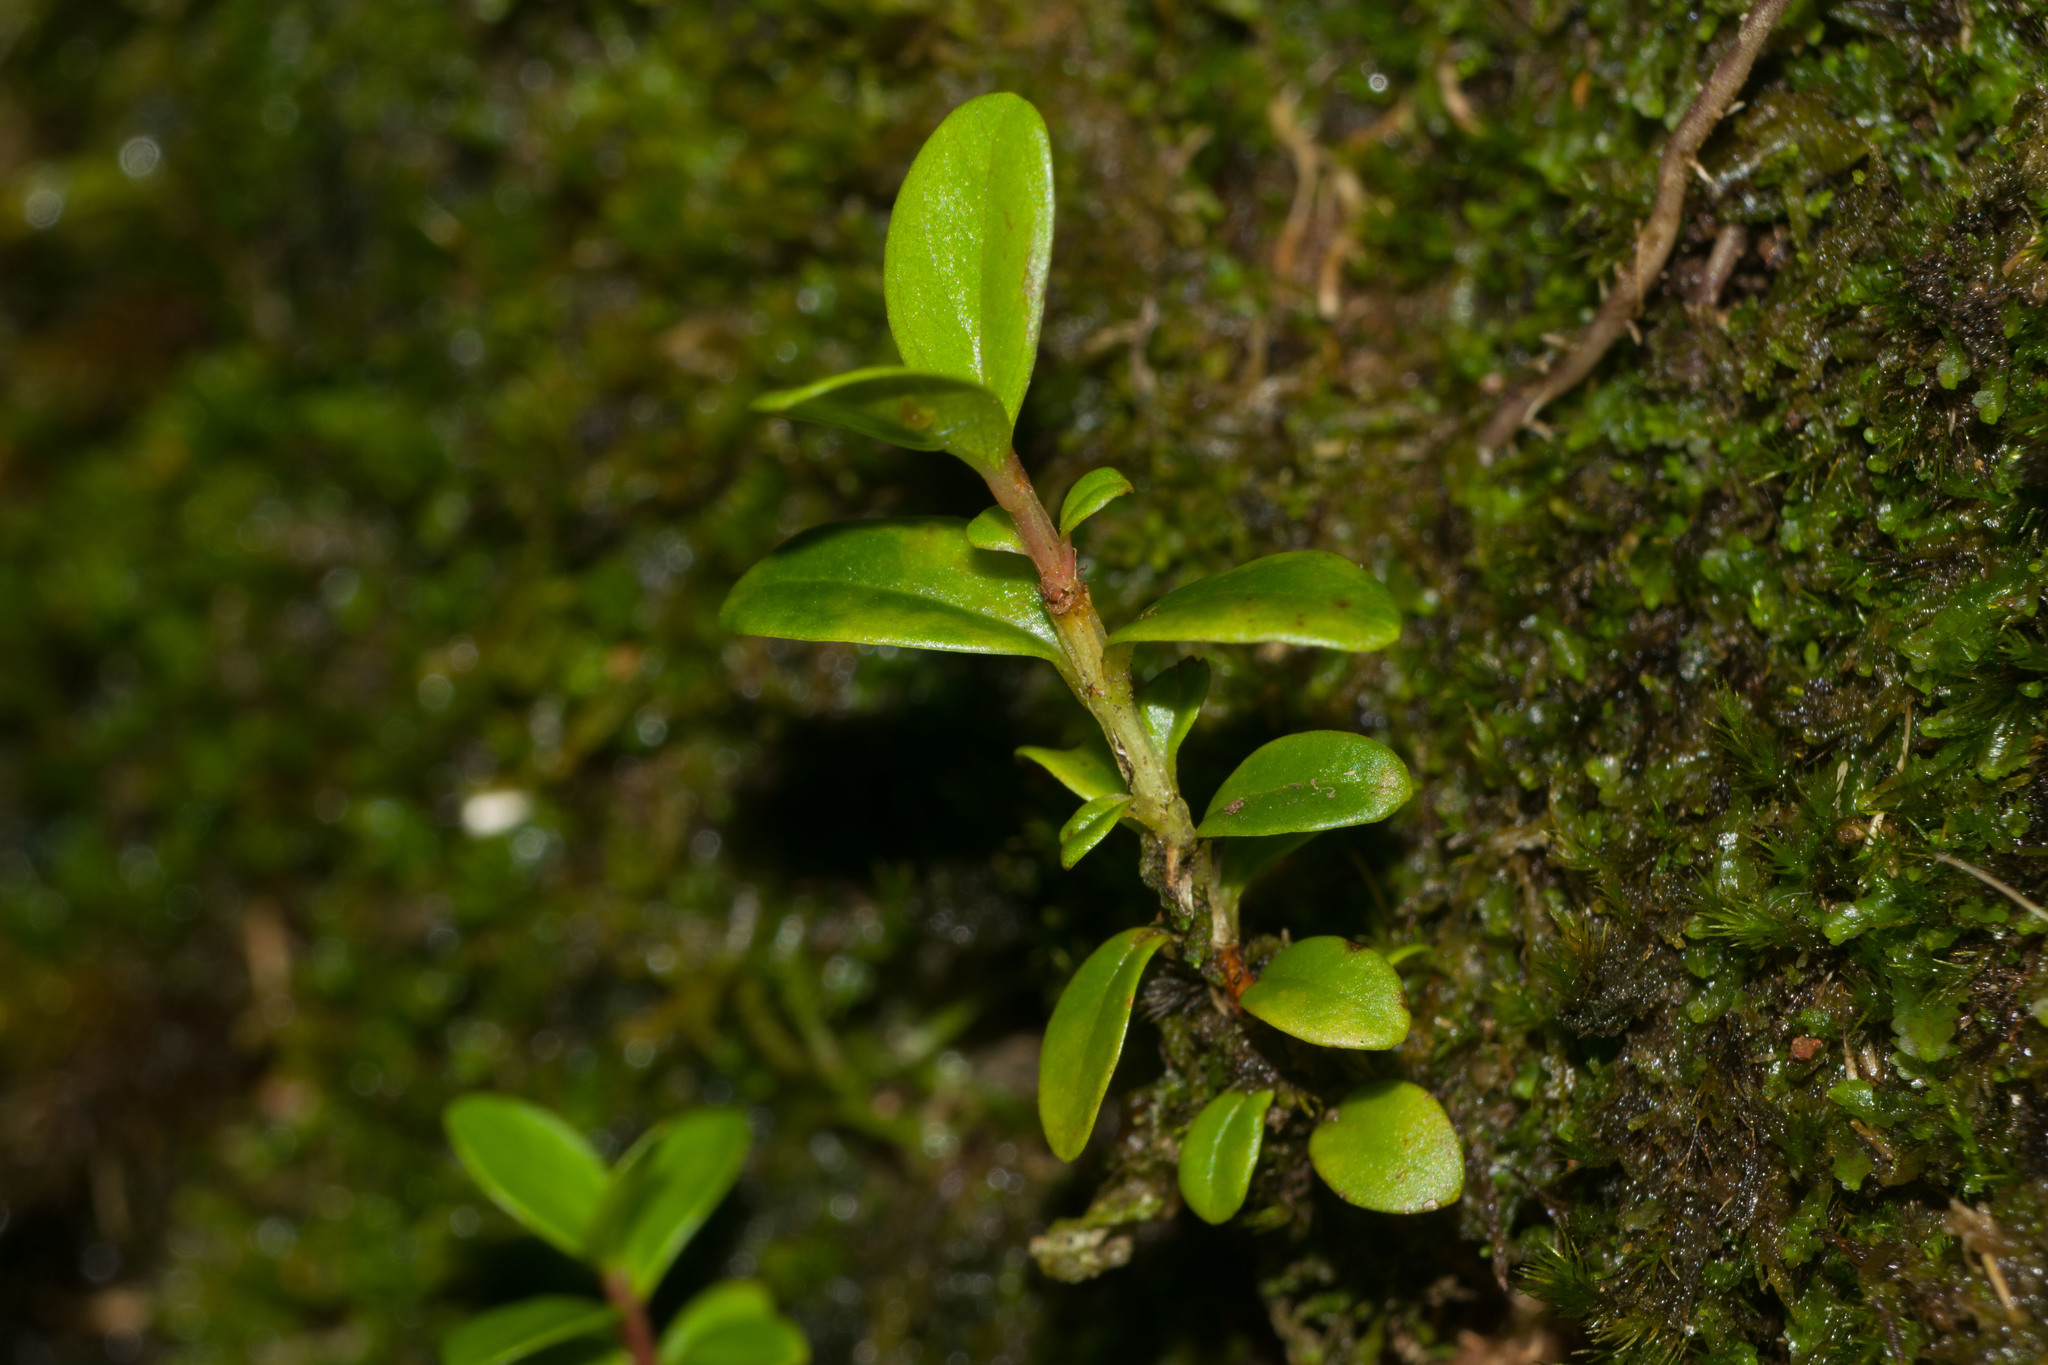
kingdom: Plantae
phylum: Tracheophyta
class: Magnoliopsida
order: Myrtales
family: Myrtaceae
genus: Metrosideros
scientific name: Metrosideros polymorpha
